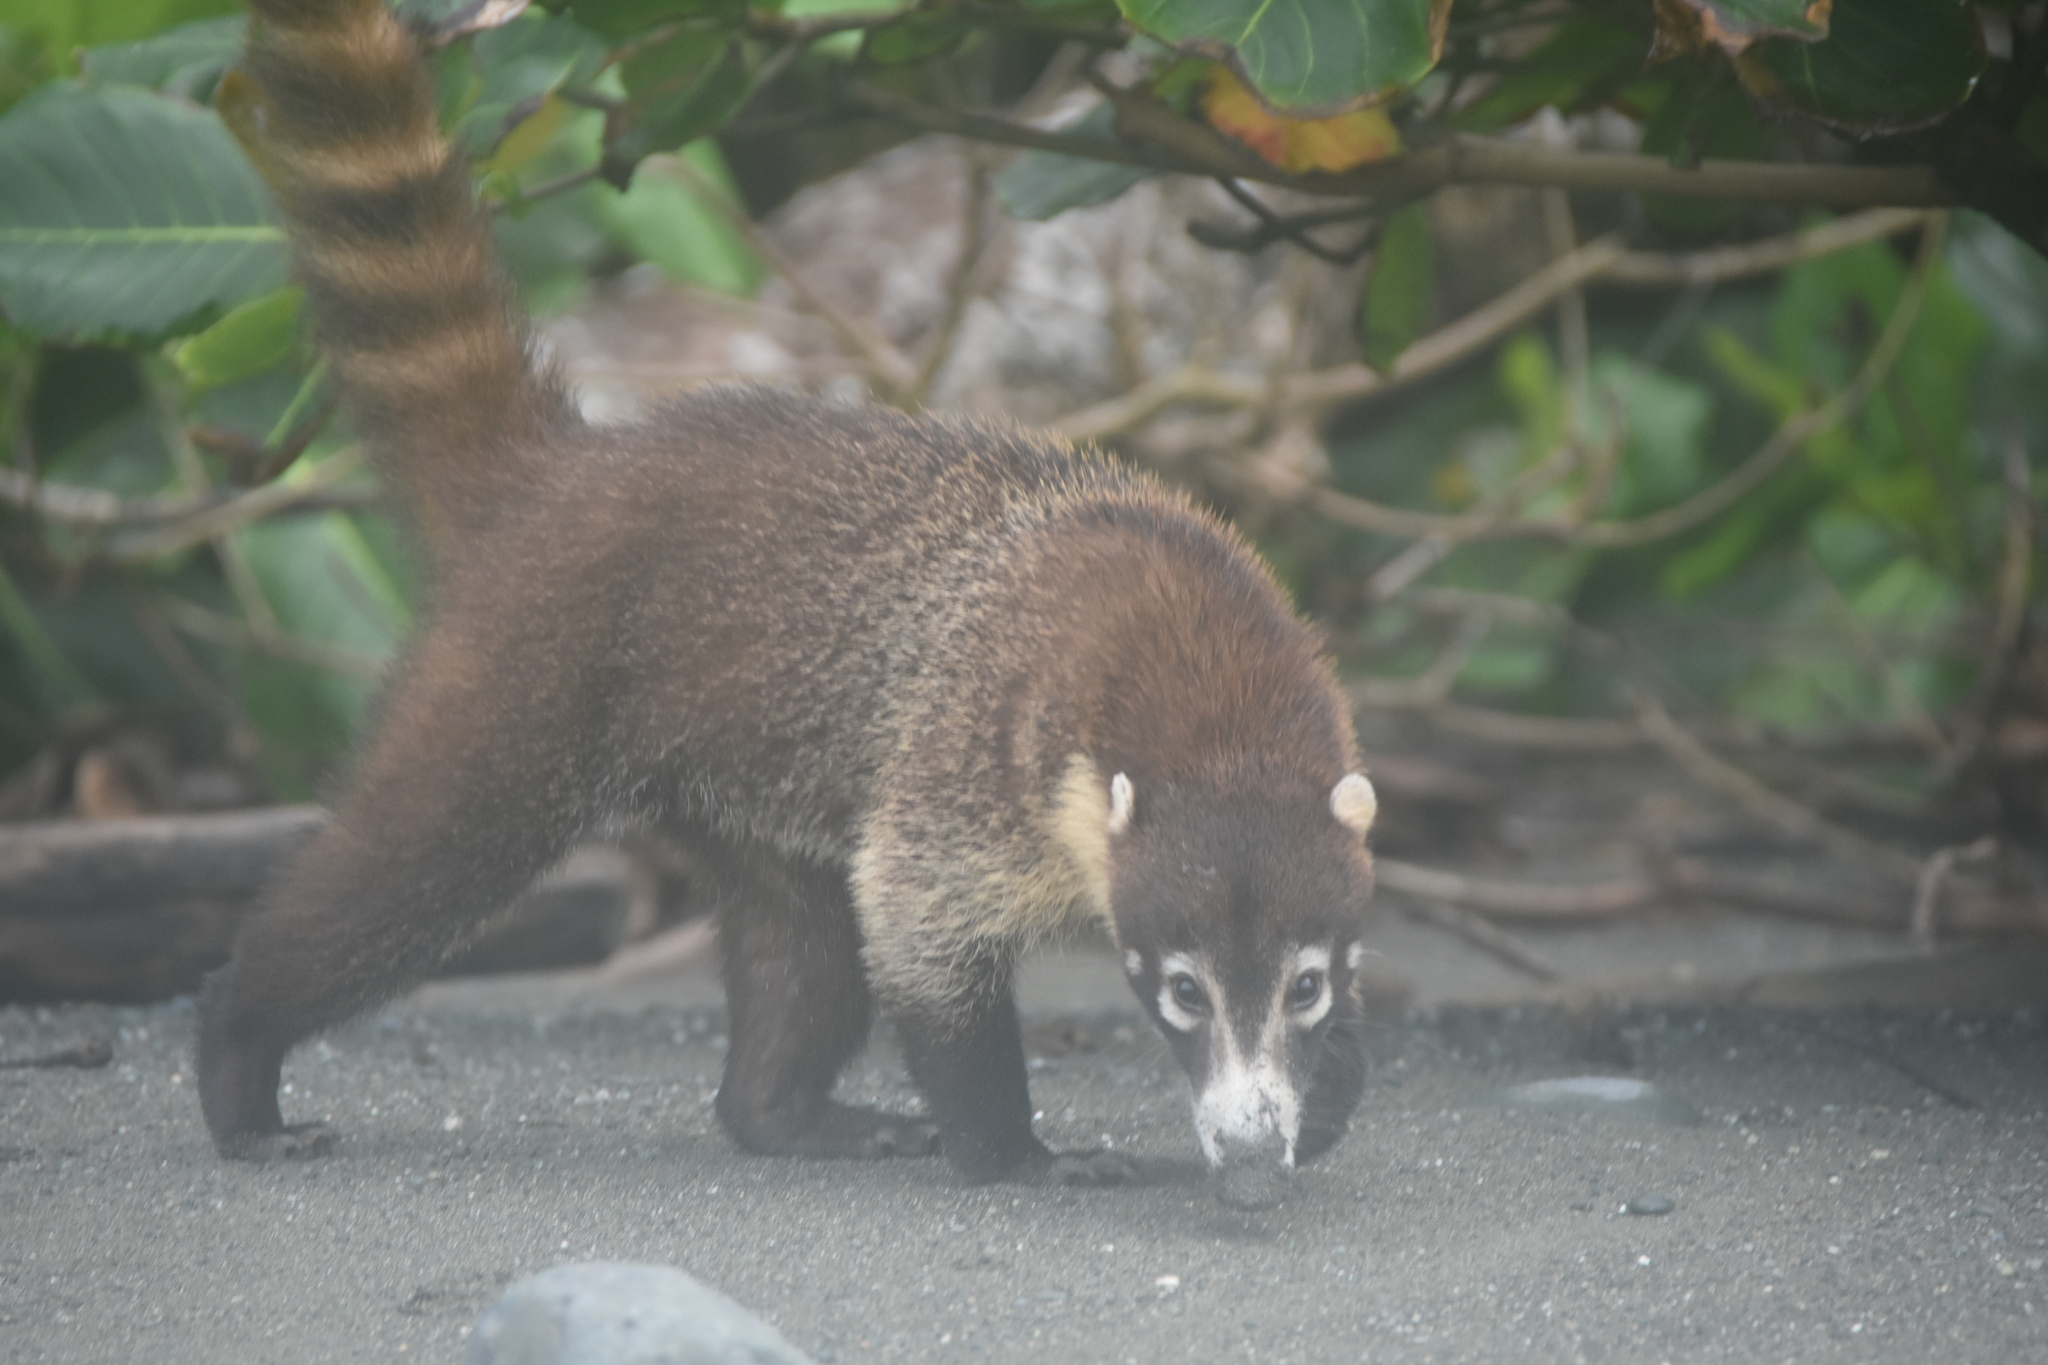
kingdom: Animalia
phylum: Chordata
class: Mammalia
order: Carnivora
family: Procyonidae
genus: Nasua
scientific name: Nasua narica
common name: White-nosed coati
